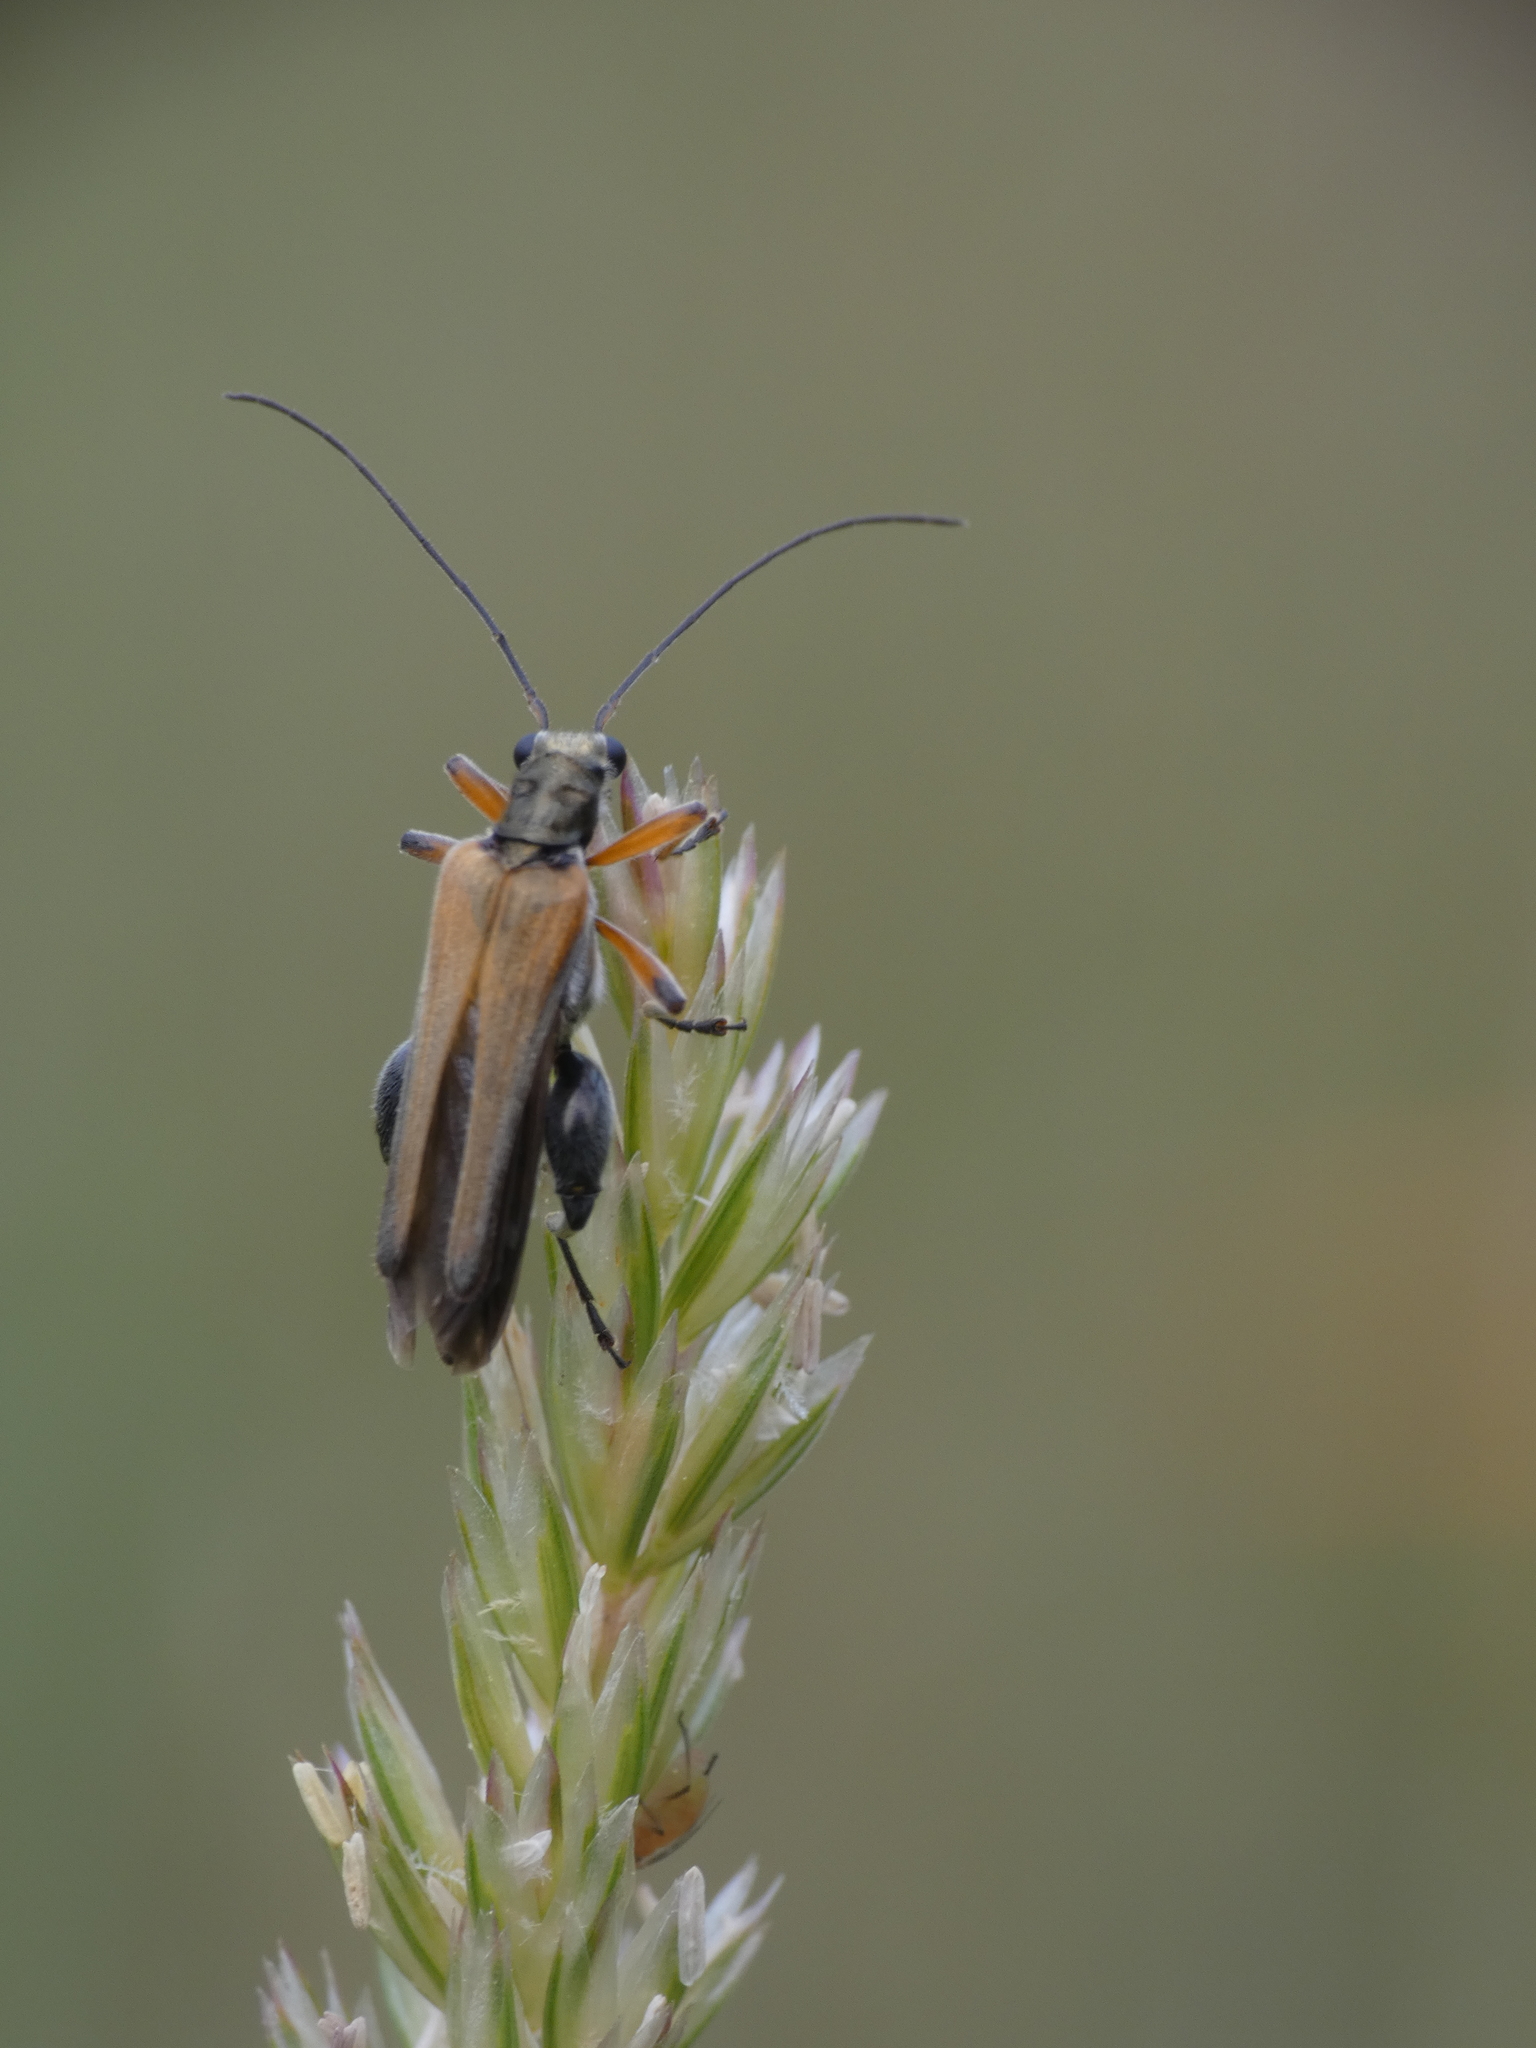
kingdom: Animalia
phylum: Arthropoda
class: Insecta
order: Coleoptera
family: Oedemeridae
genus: Oedemera
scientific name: Oedemera podagrariae
